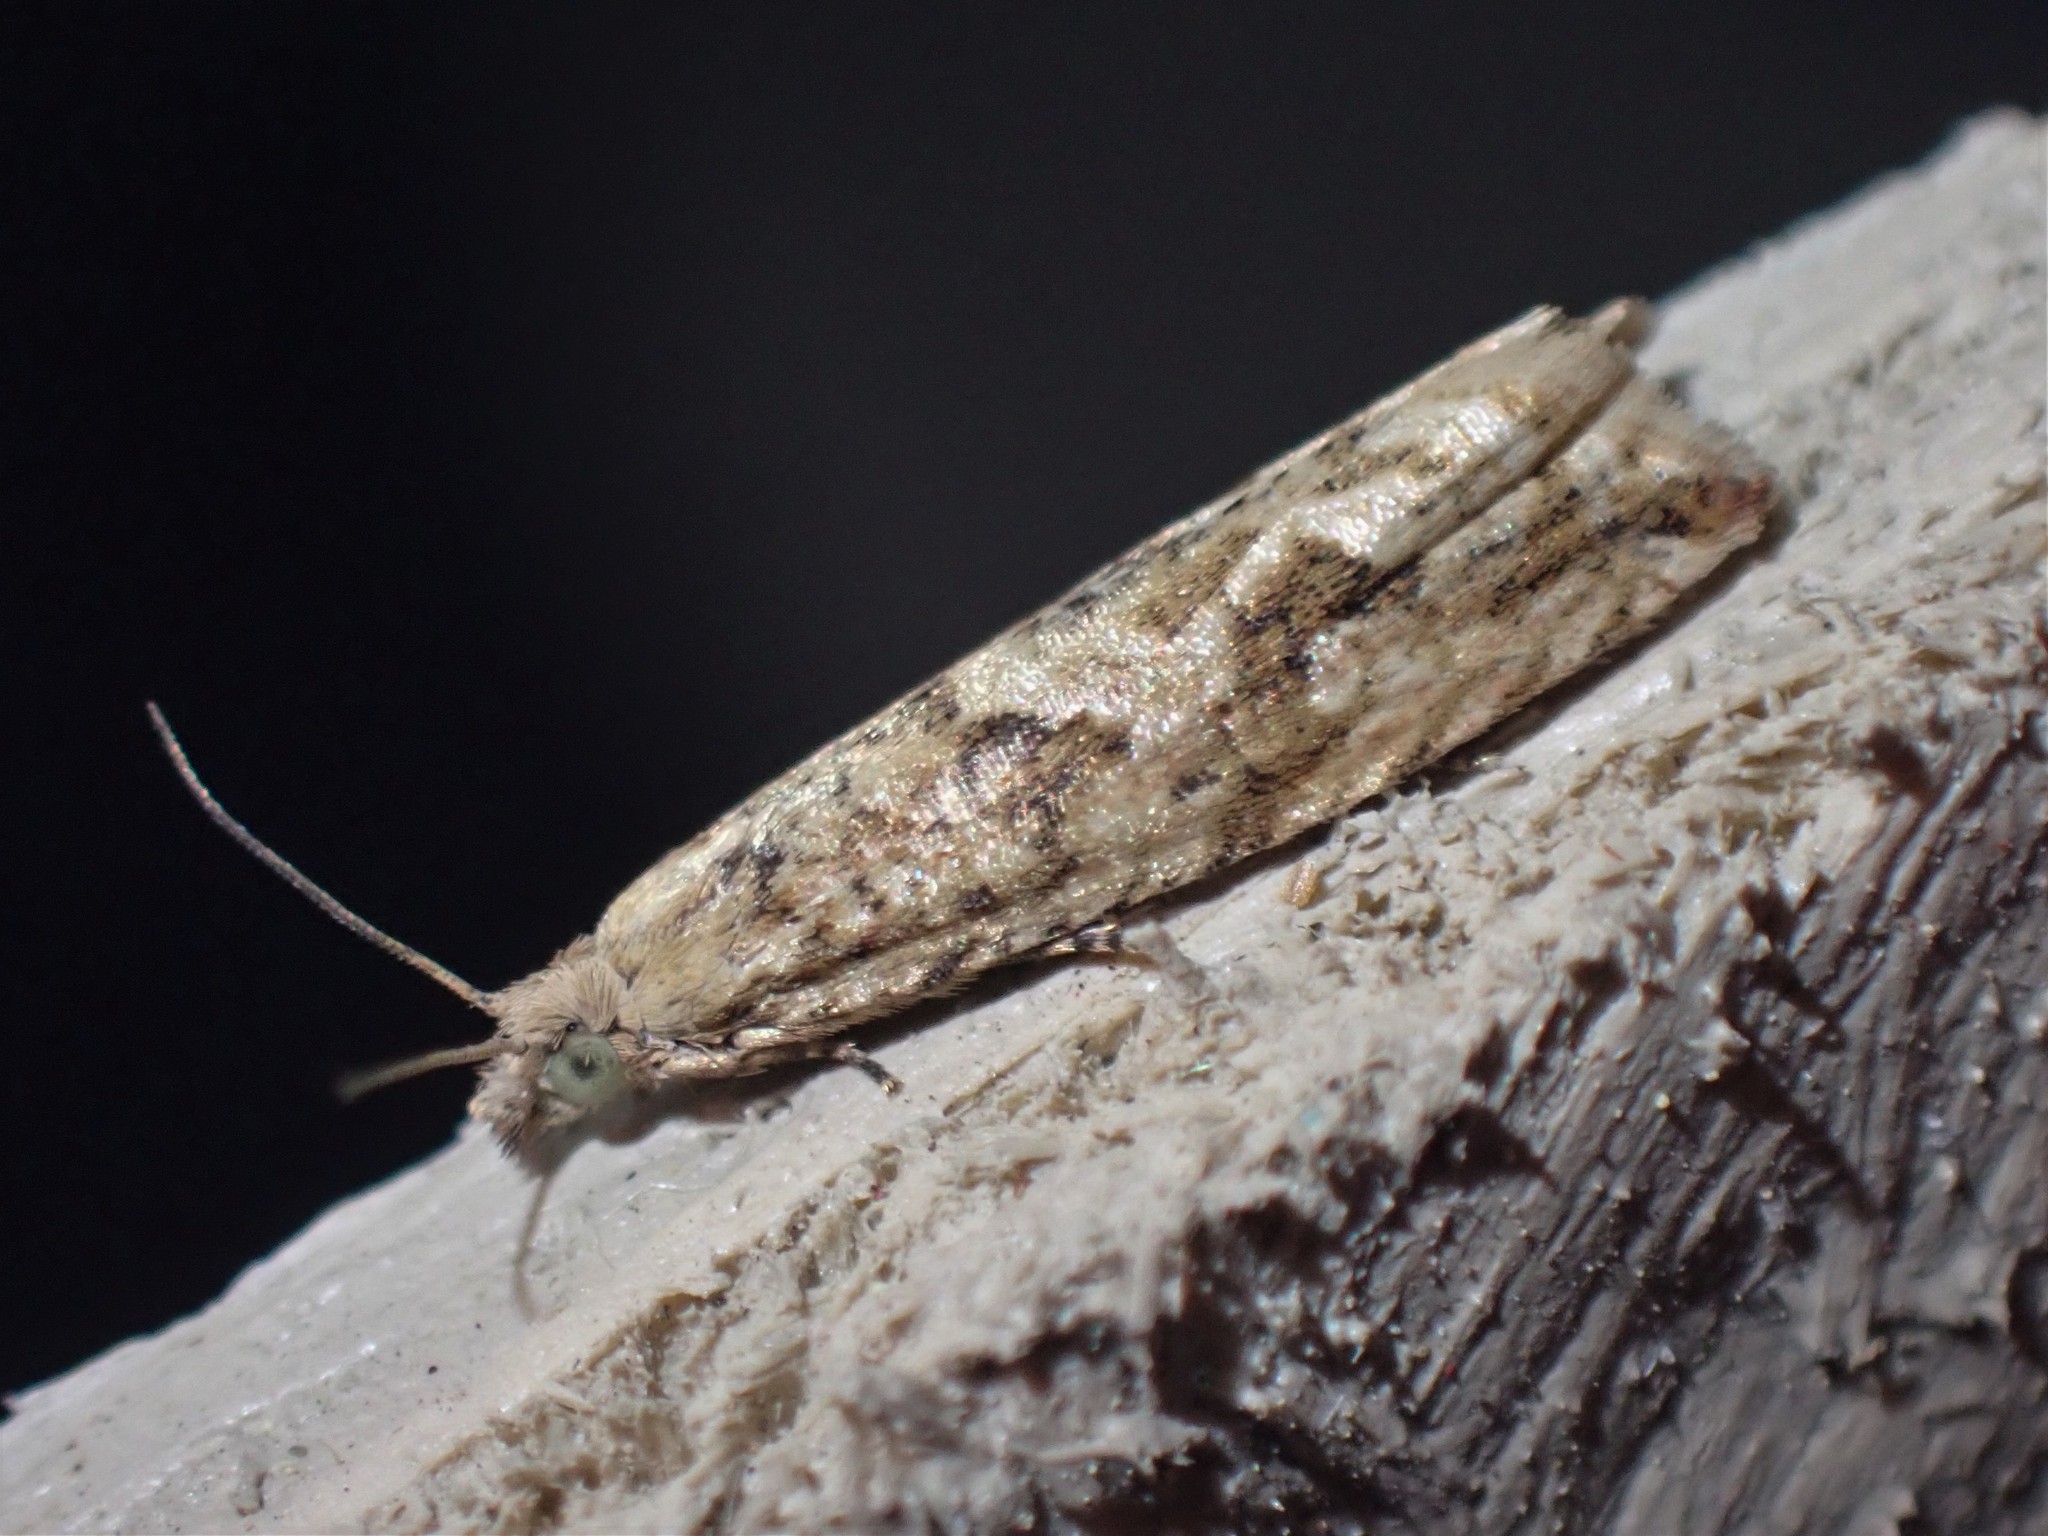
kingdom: Animalia
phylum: Arthropoda
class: Insecta
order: Lepidoptera
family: Tortricidae
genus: Bactra
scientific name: Bactra furfurana
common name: Mottled marble
